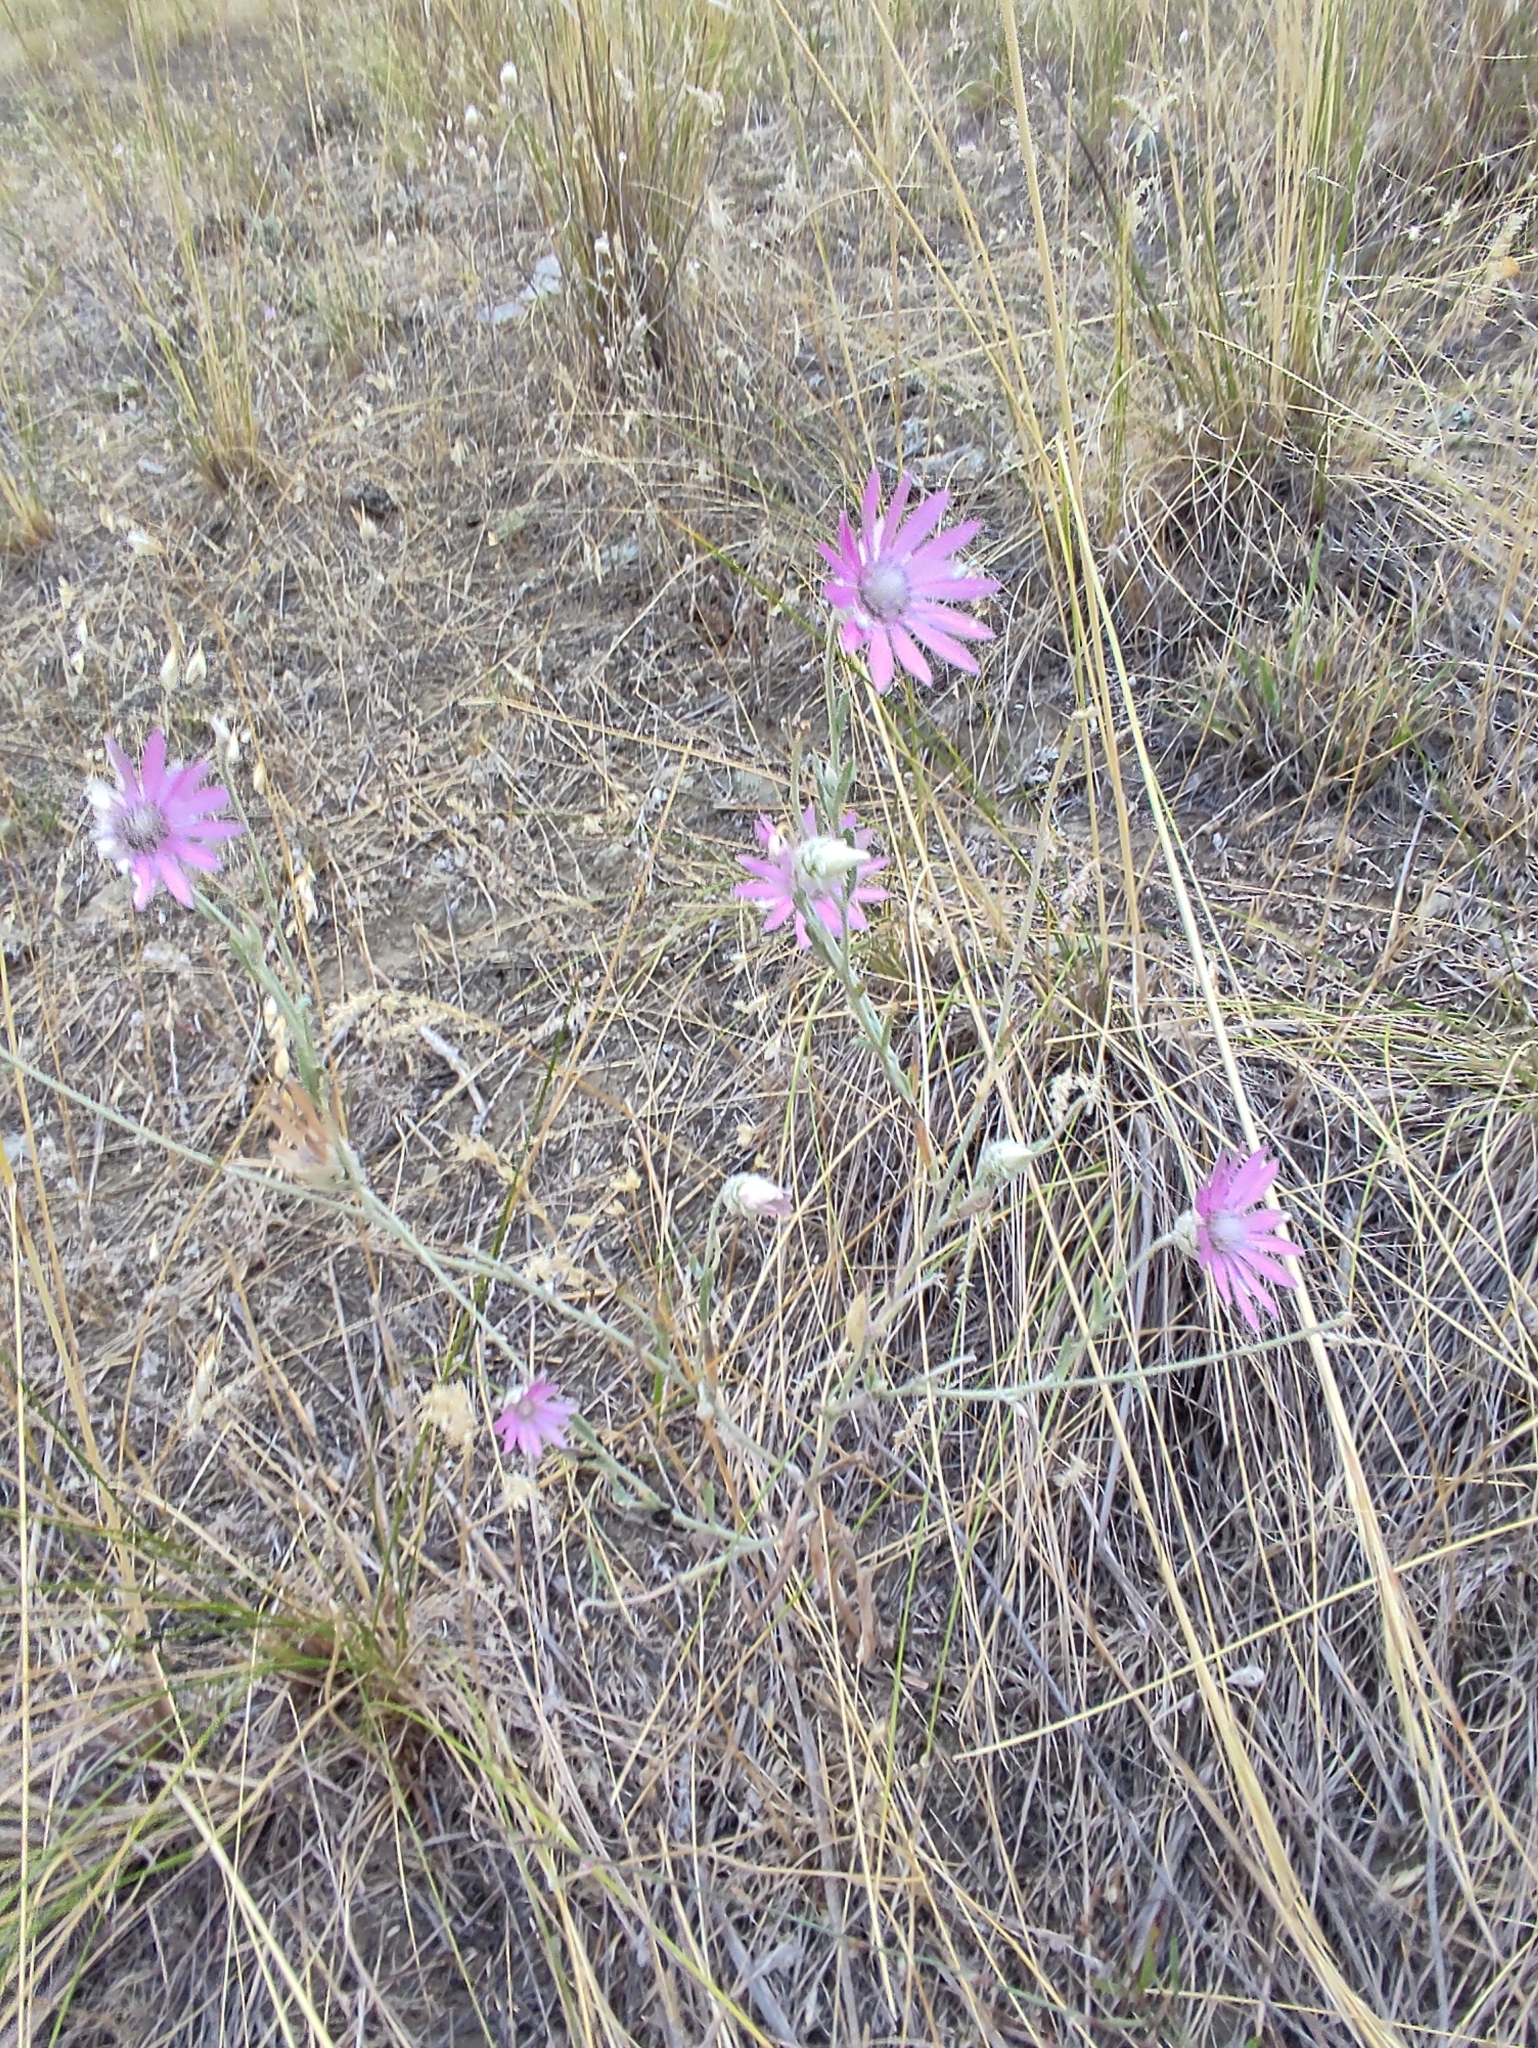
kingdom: Plantae
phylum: Tracheophyta
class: Magnoliopsida
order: Asterales
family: Asteraceae
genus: Xeranthemum
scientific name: Xeranthemum annuum
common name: Immortelle
